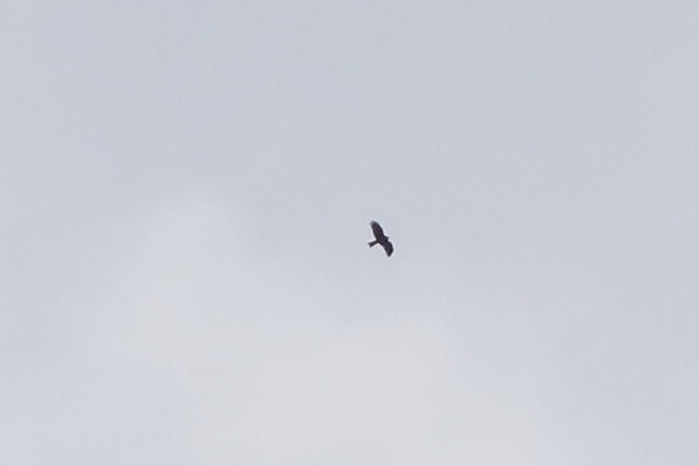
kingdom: Animalia
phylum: Chordata
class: Aves
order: Accipitriformes
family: Accipitridae
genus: Milvus
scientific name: Milvus migrans
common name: Black kite
